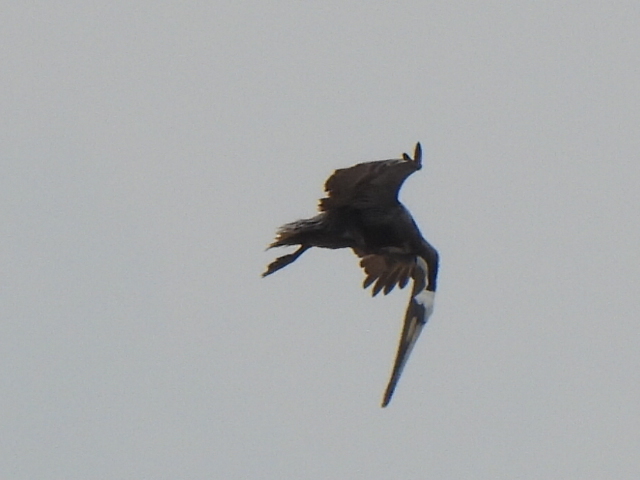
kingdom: Animalia
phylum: Chordata
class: Aves
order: Pelecaniformes
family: Pelecanidae
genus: Pelecanus
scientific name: Pelecanus occidentalis
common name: Brown pelican
